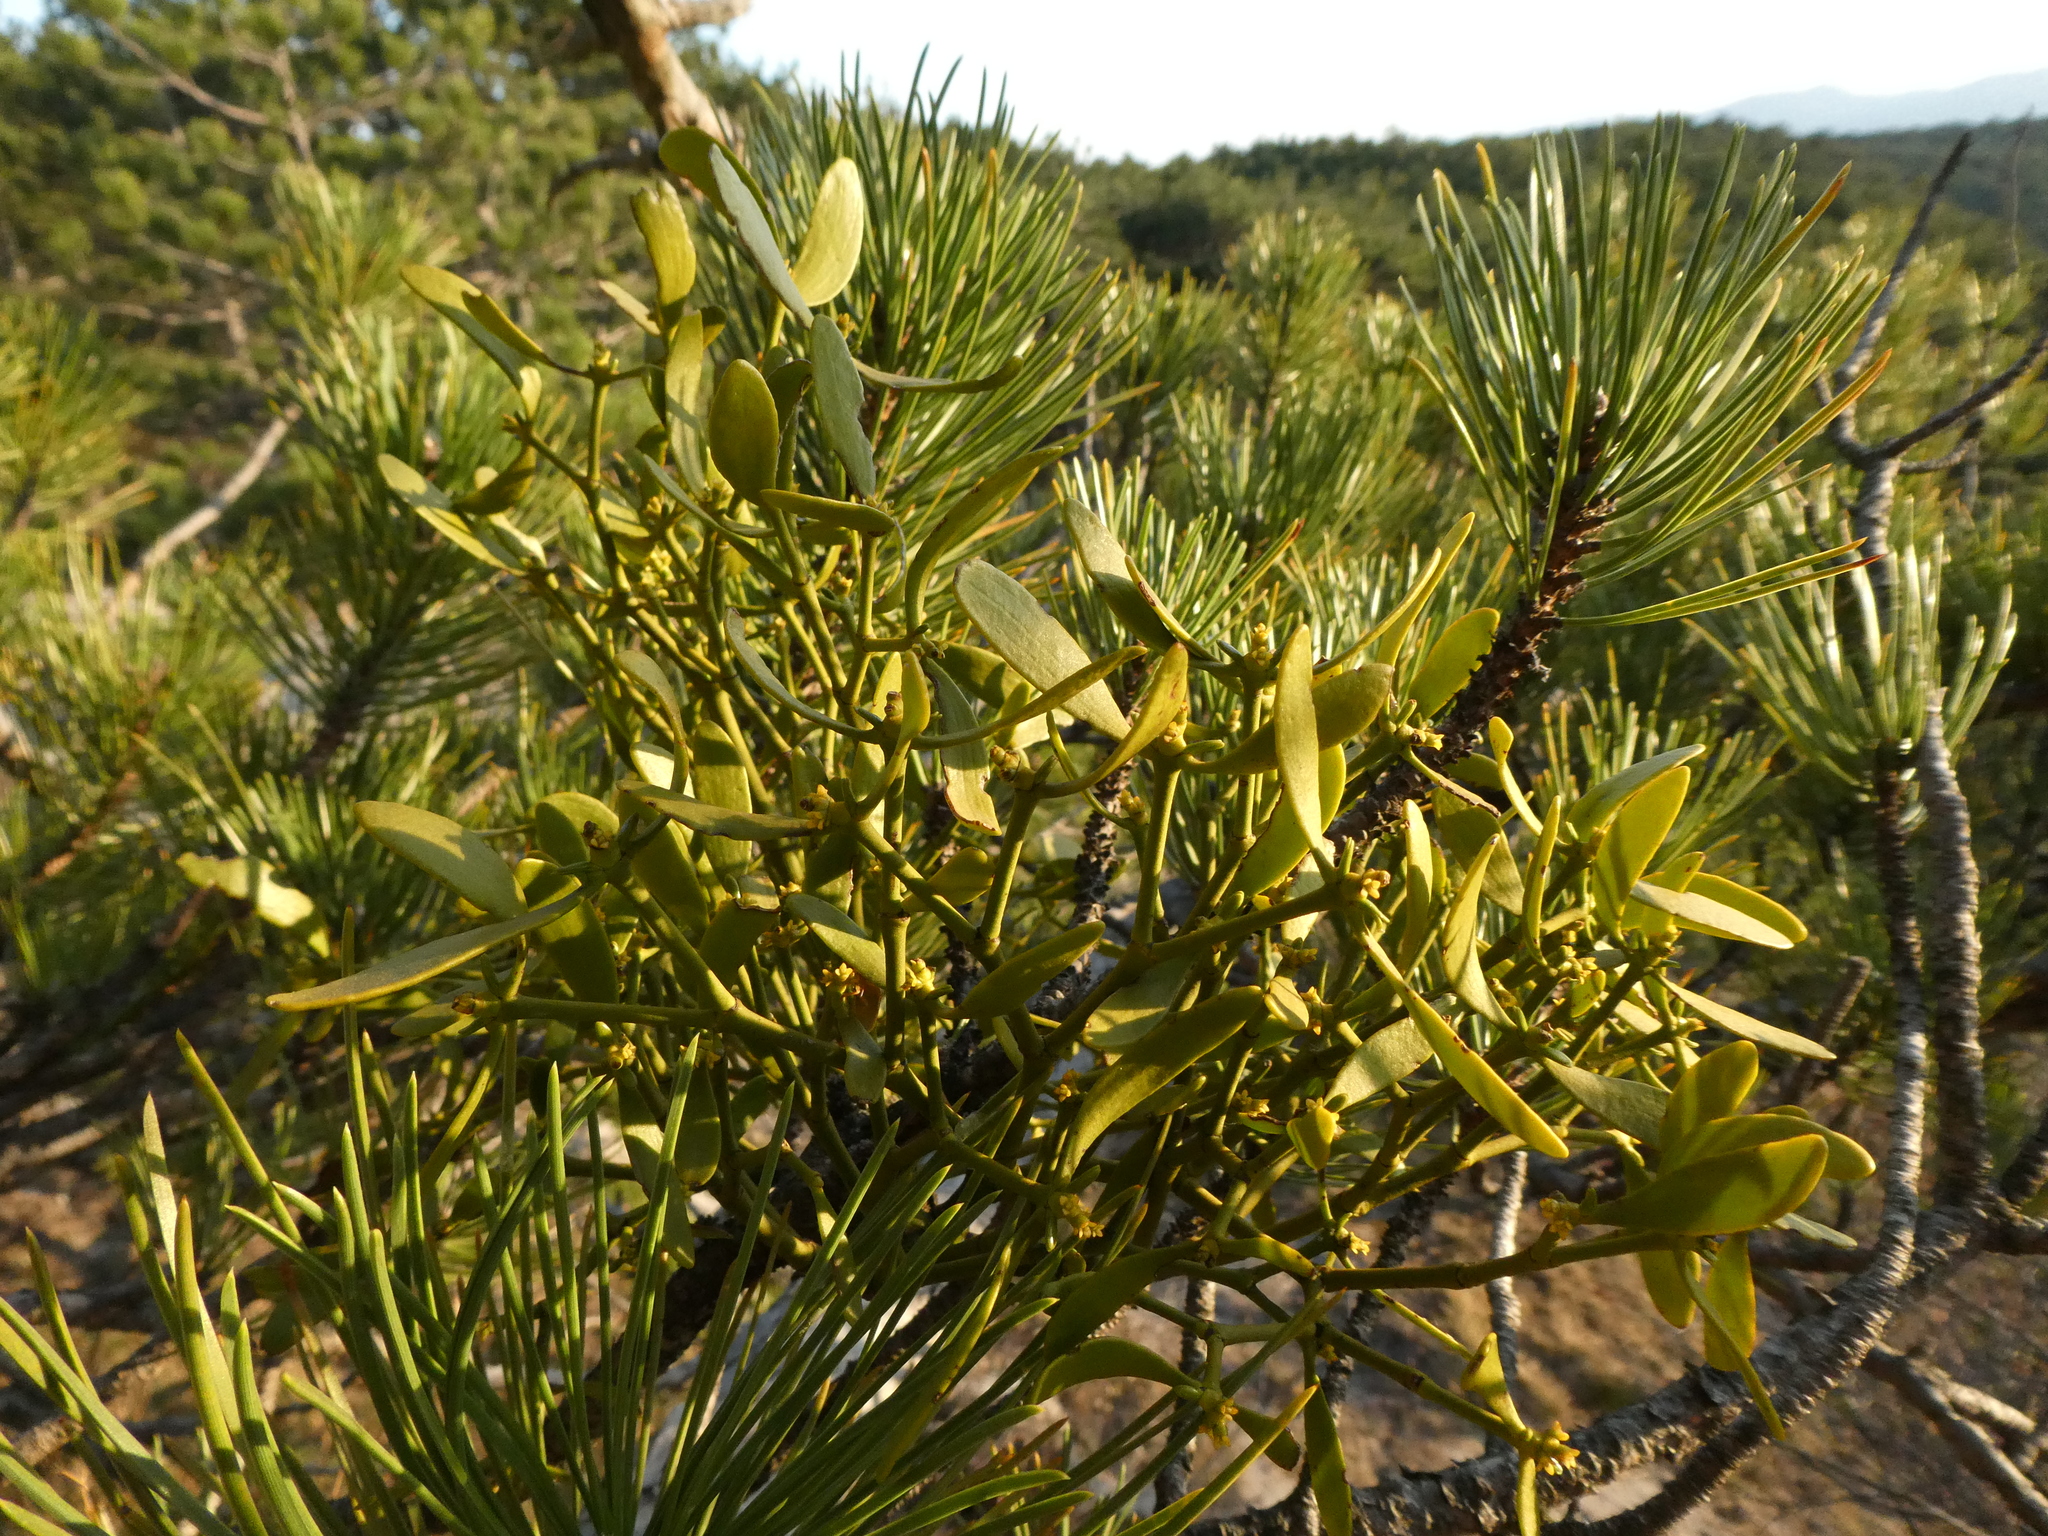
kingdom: Plantae
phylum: Tracheophyta
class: Magnoliopsida
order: Santalales
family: Viscaceae
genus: Viscum
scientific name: Viscum laxum
